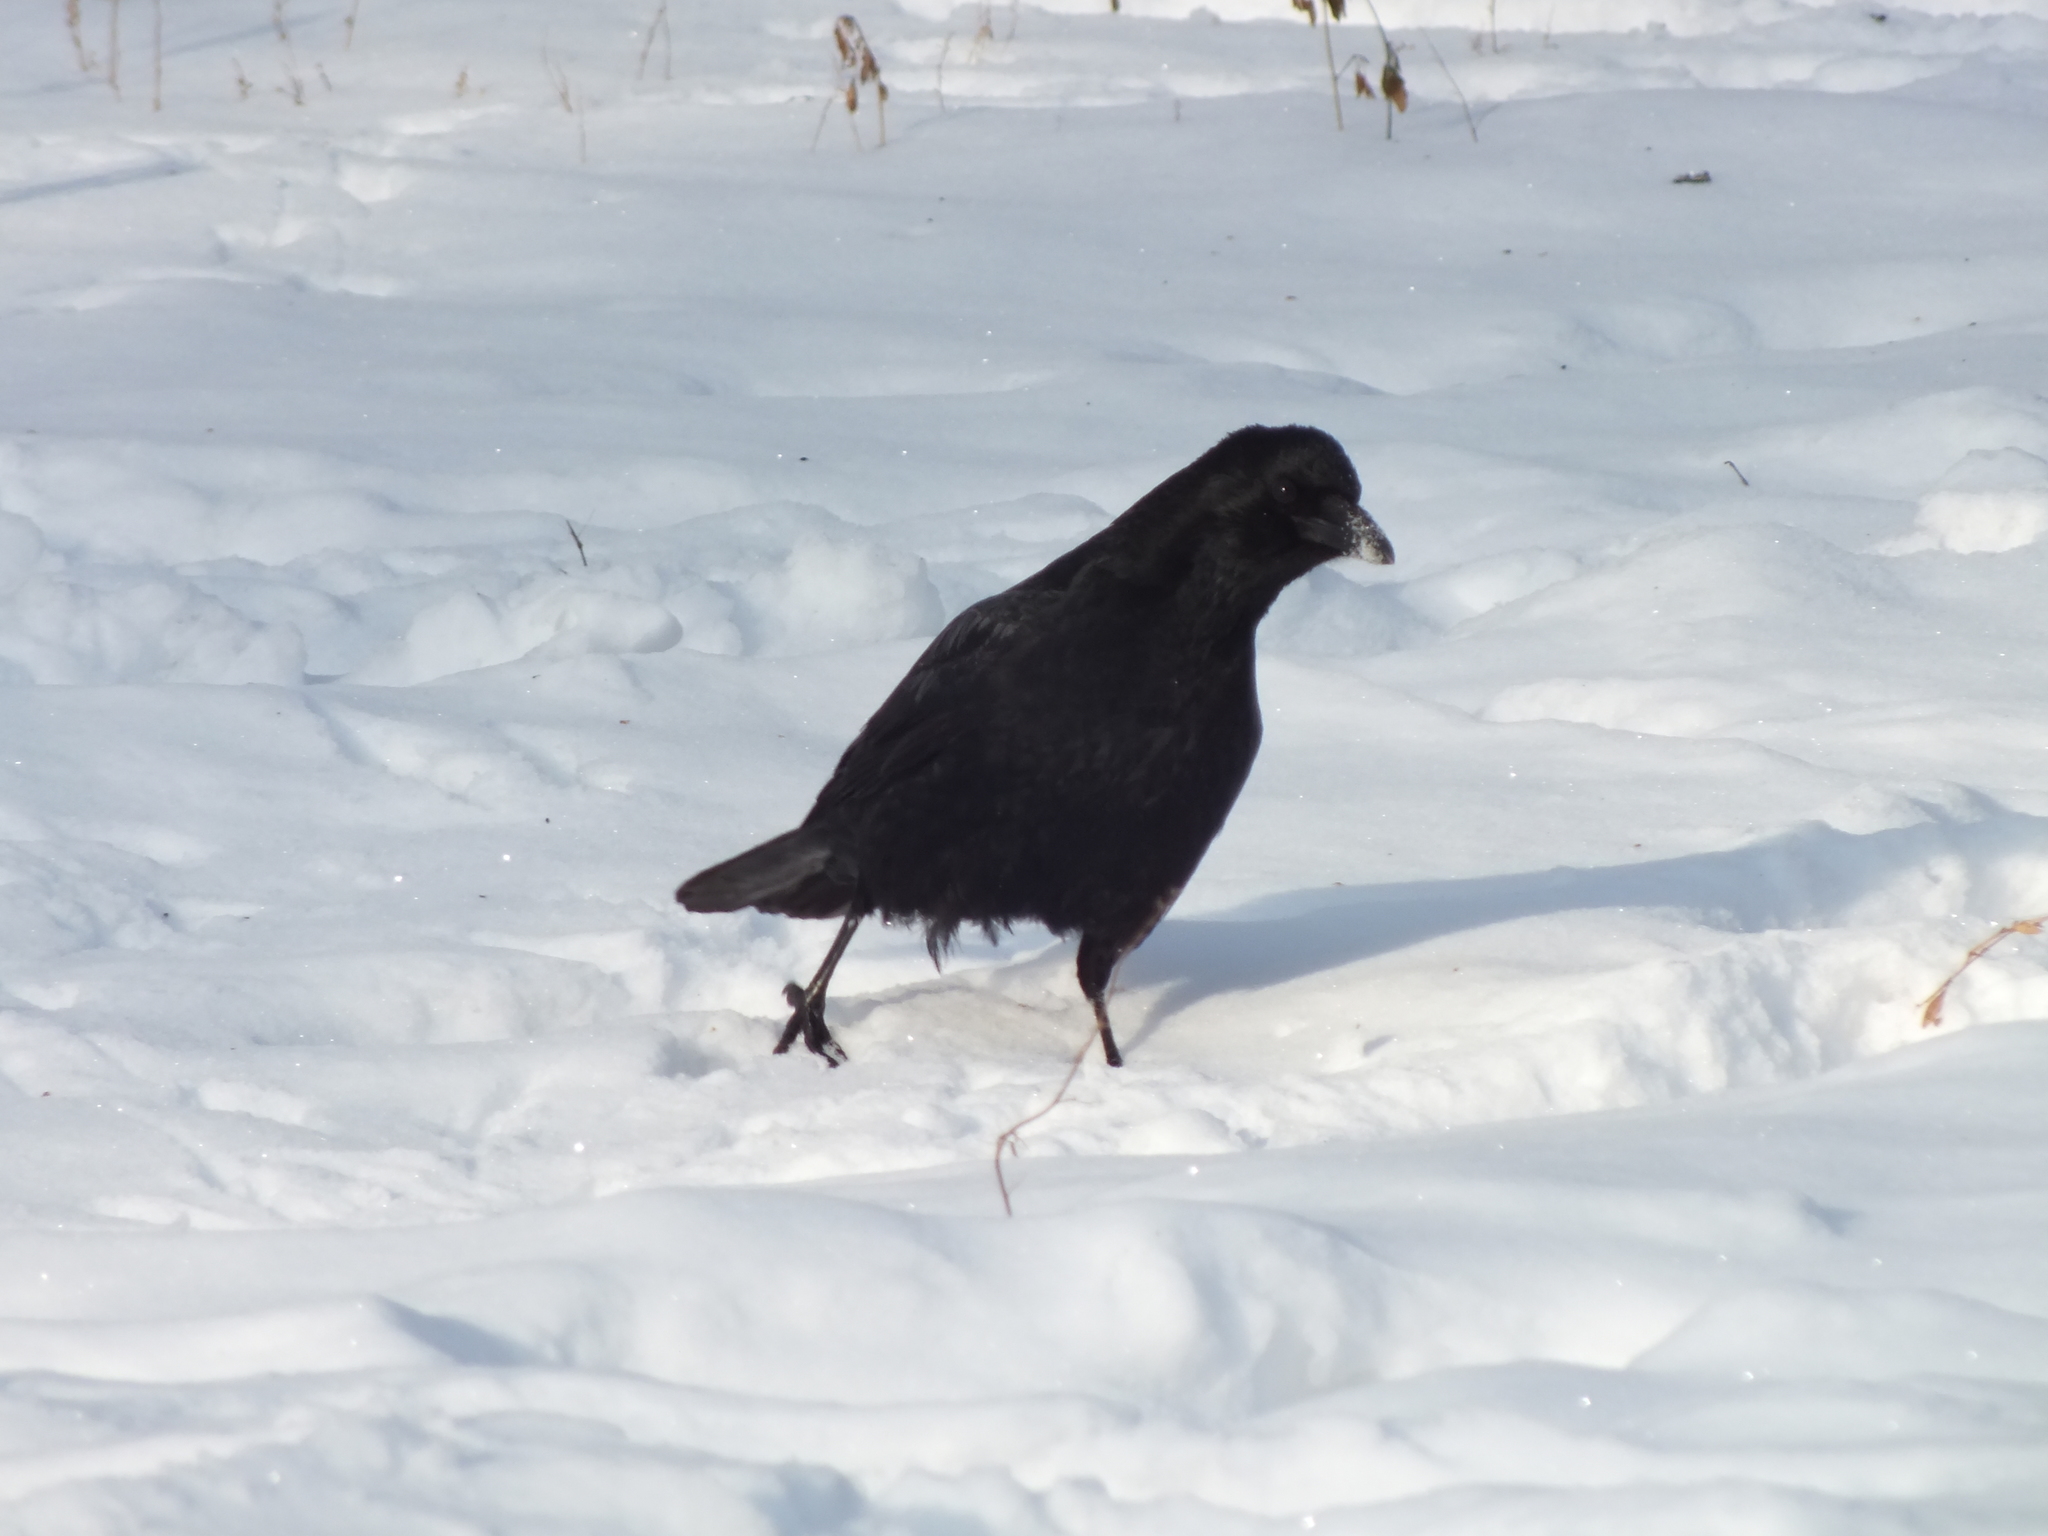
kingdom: Animalia
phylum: Chordata
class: Aves
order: Passeriformes
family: Corvidae
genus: Corvus
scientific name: Corvus corone
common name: Carrion crow
